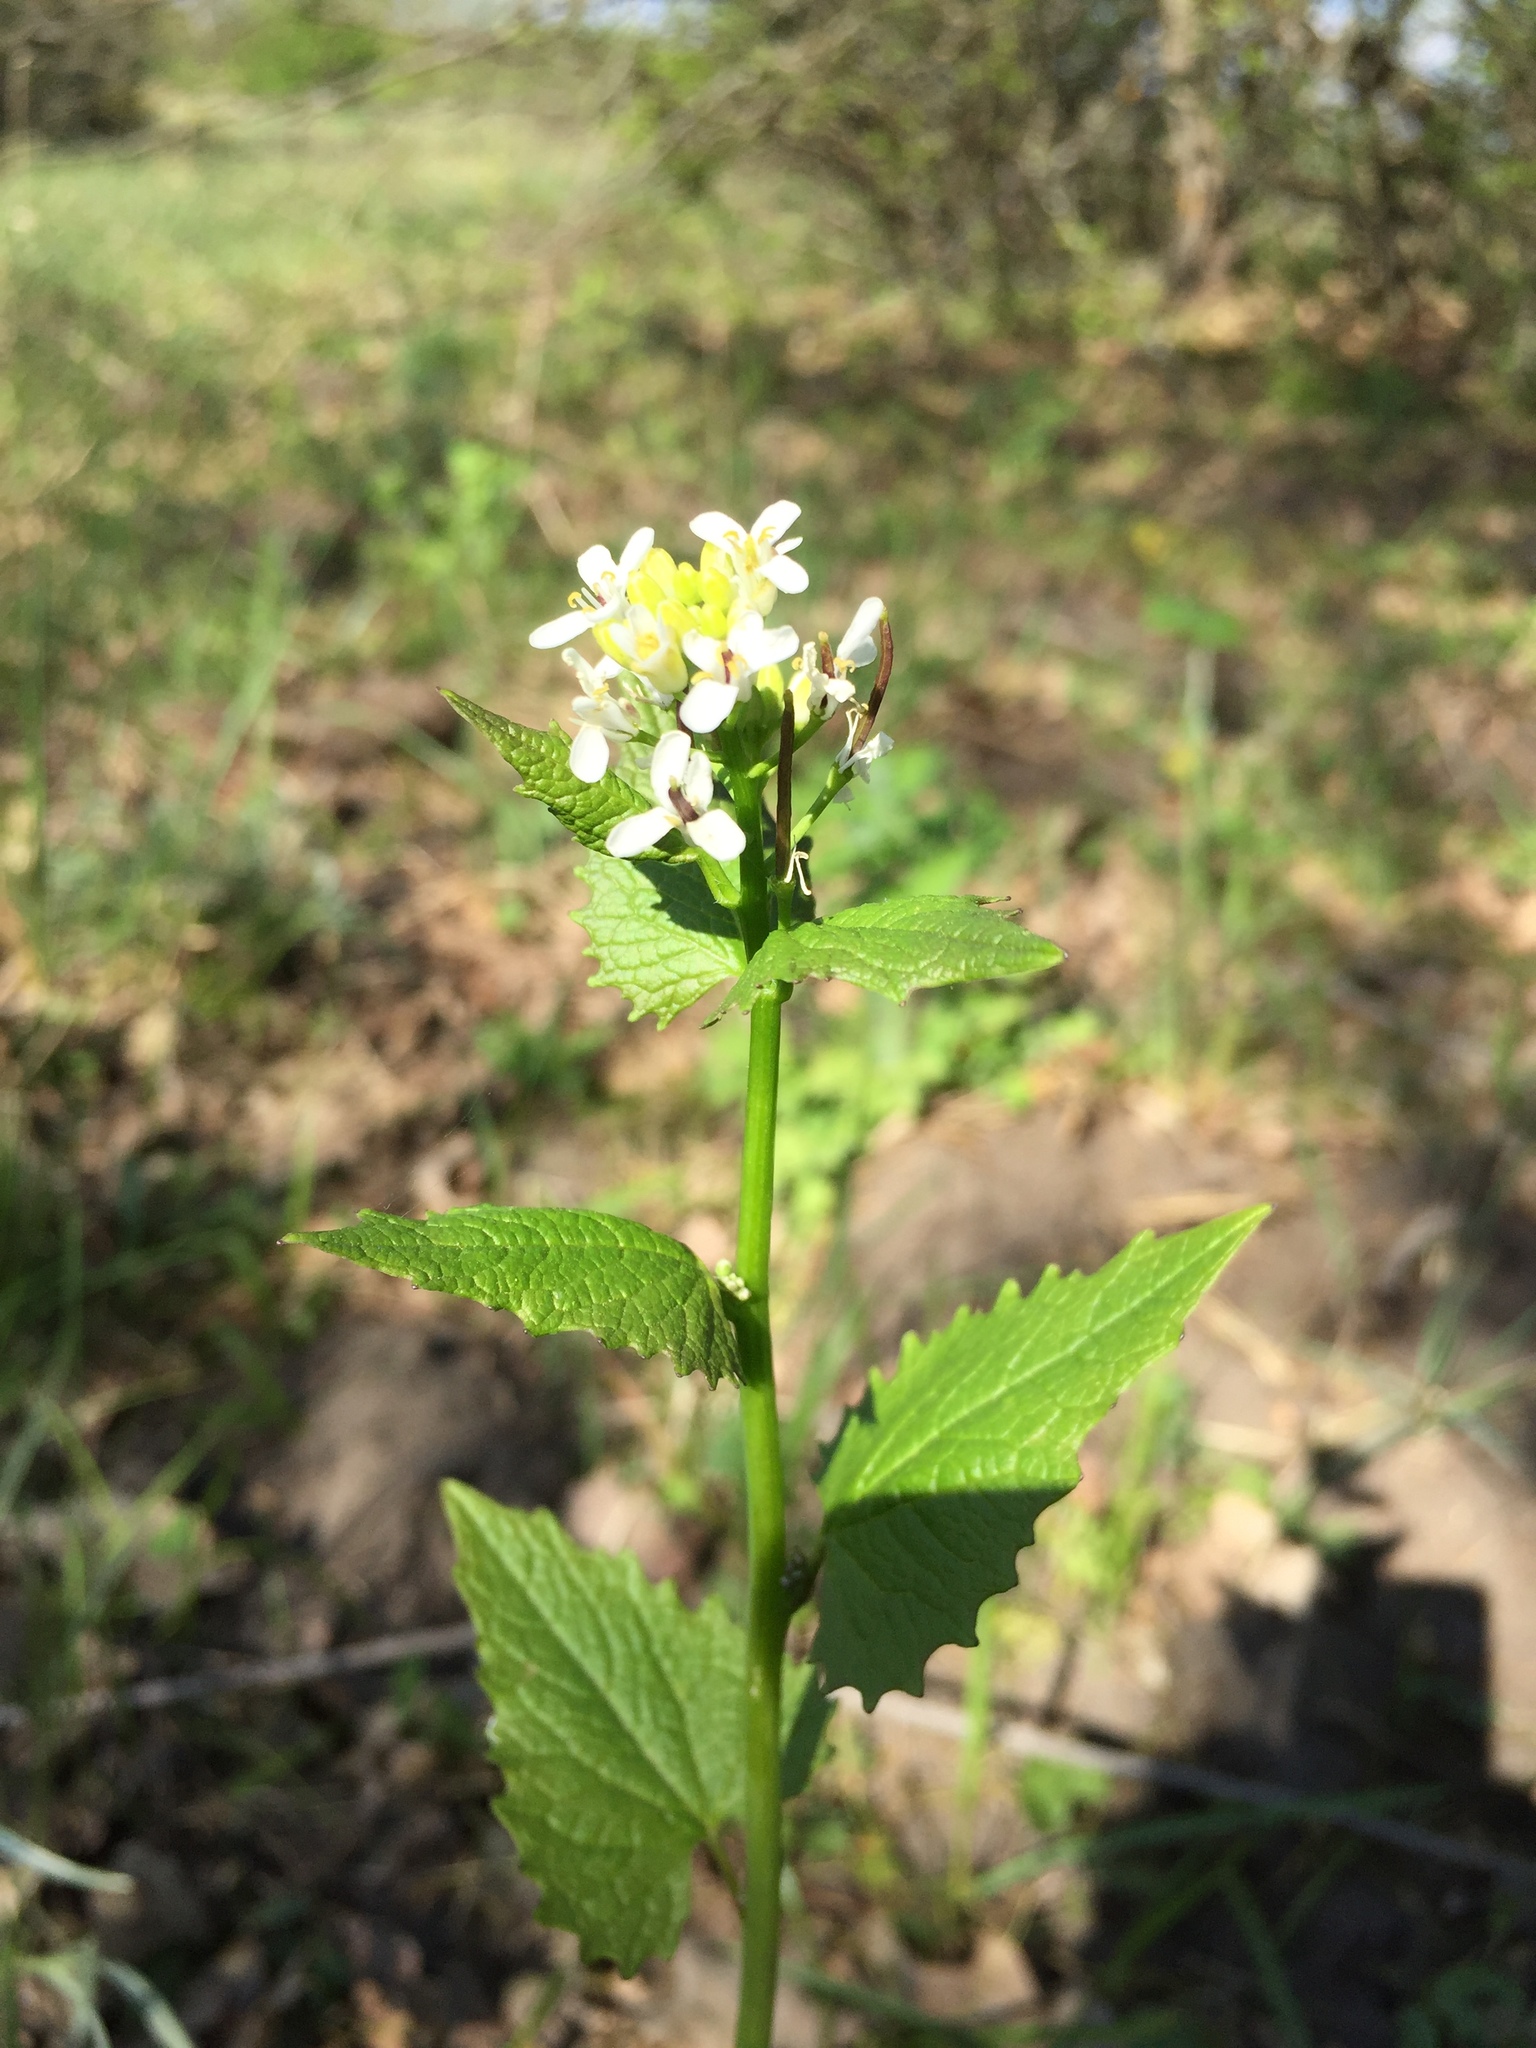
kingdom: Plantae
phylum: Tracheophyta
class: Magnoliopsida
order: Brassicales
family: Brassicaceae
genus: Alliaria
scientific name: Alliaria petiolata
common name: Garlic mustard
